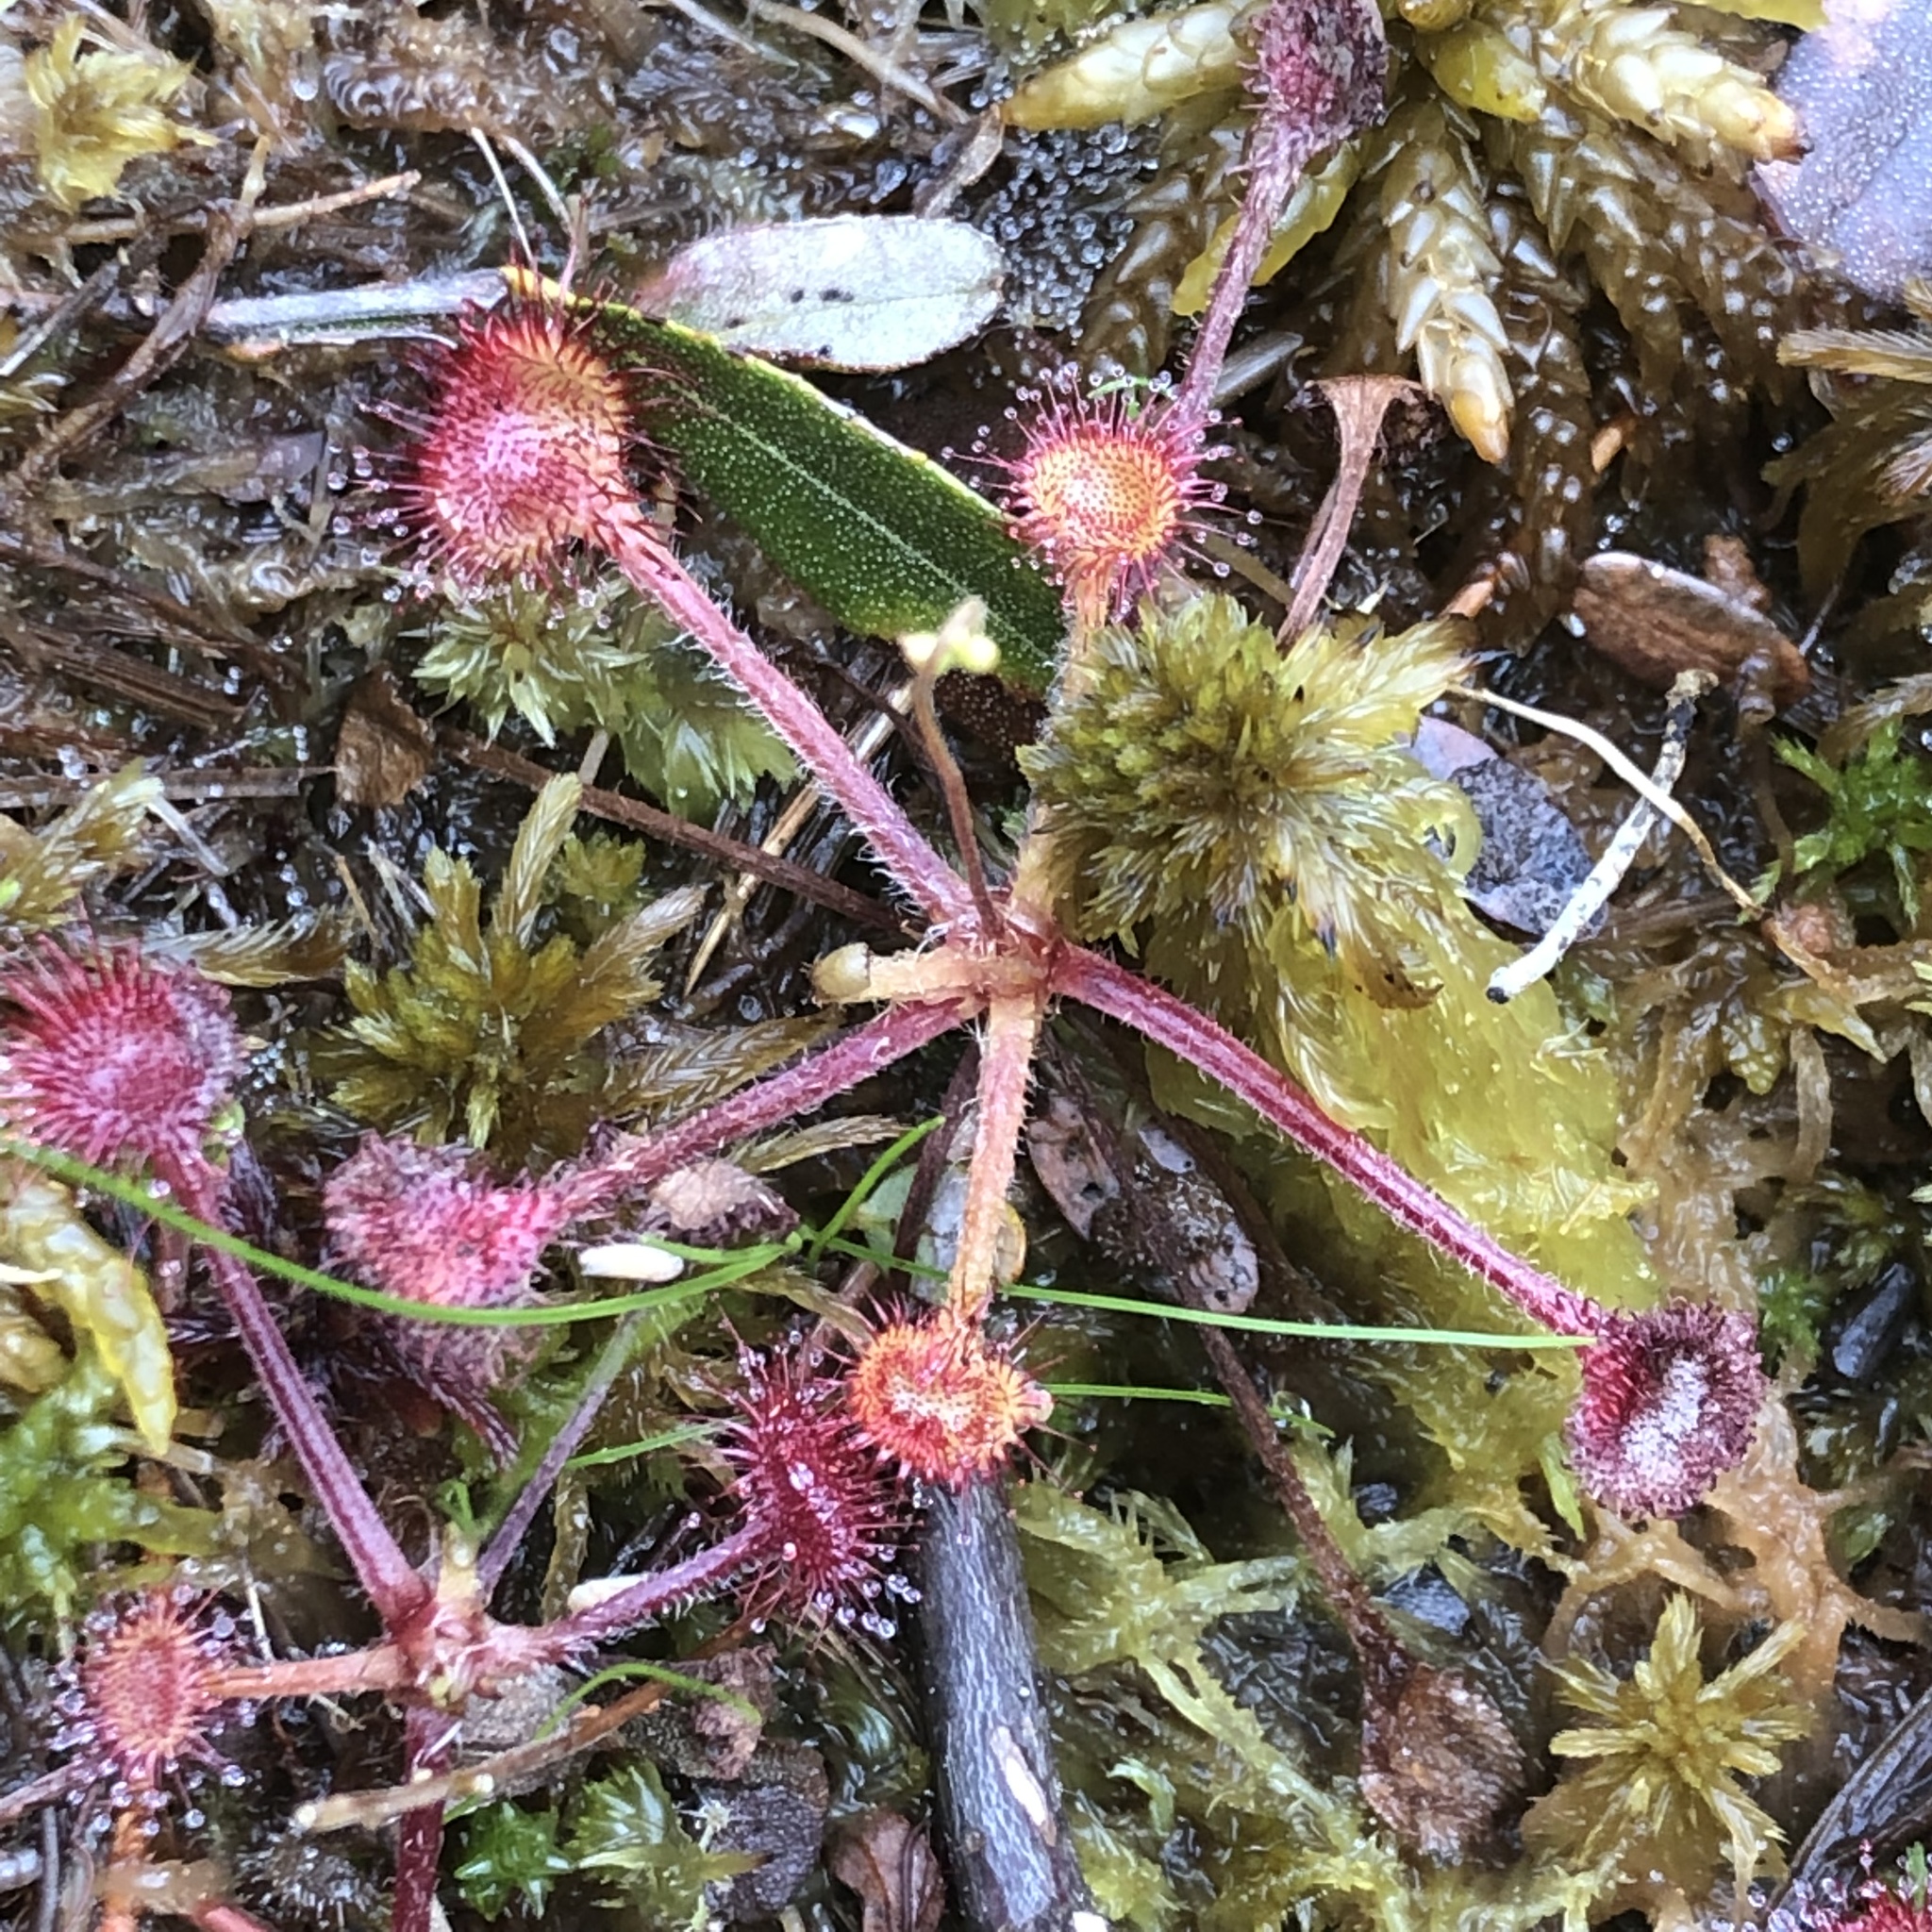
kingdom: Plantae
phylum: Tracheophyta
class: Magnoliopsida
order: Caryophyllales
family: Droseraceae
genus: Drosera
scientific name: Drosera rotundifolia
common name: Round-leaved sundew
